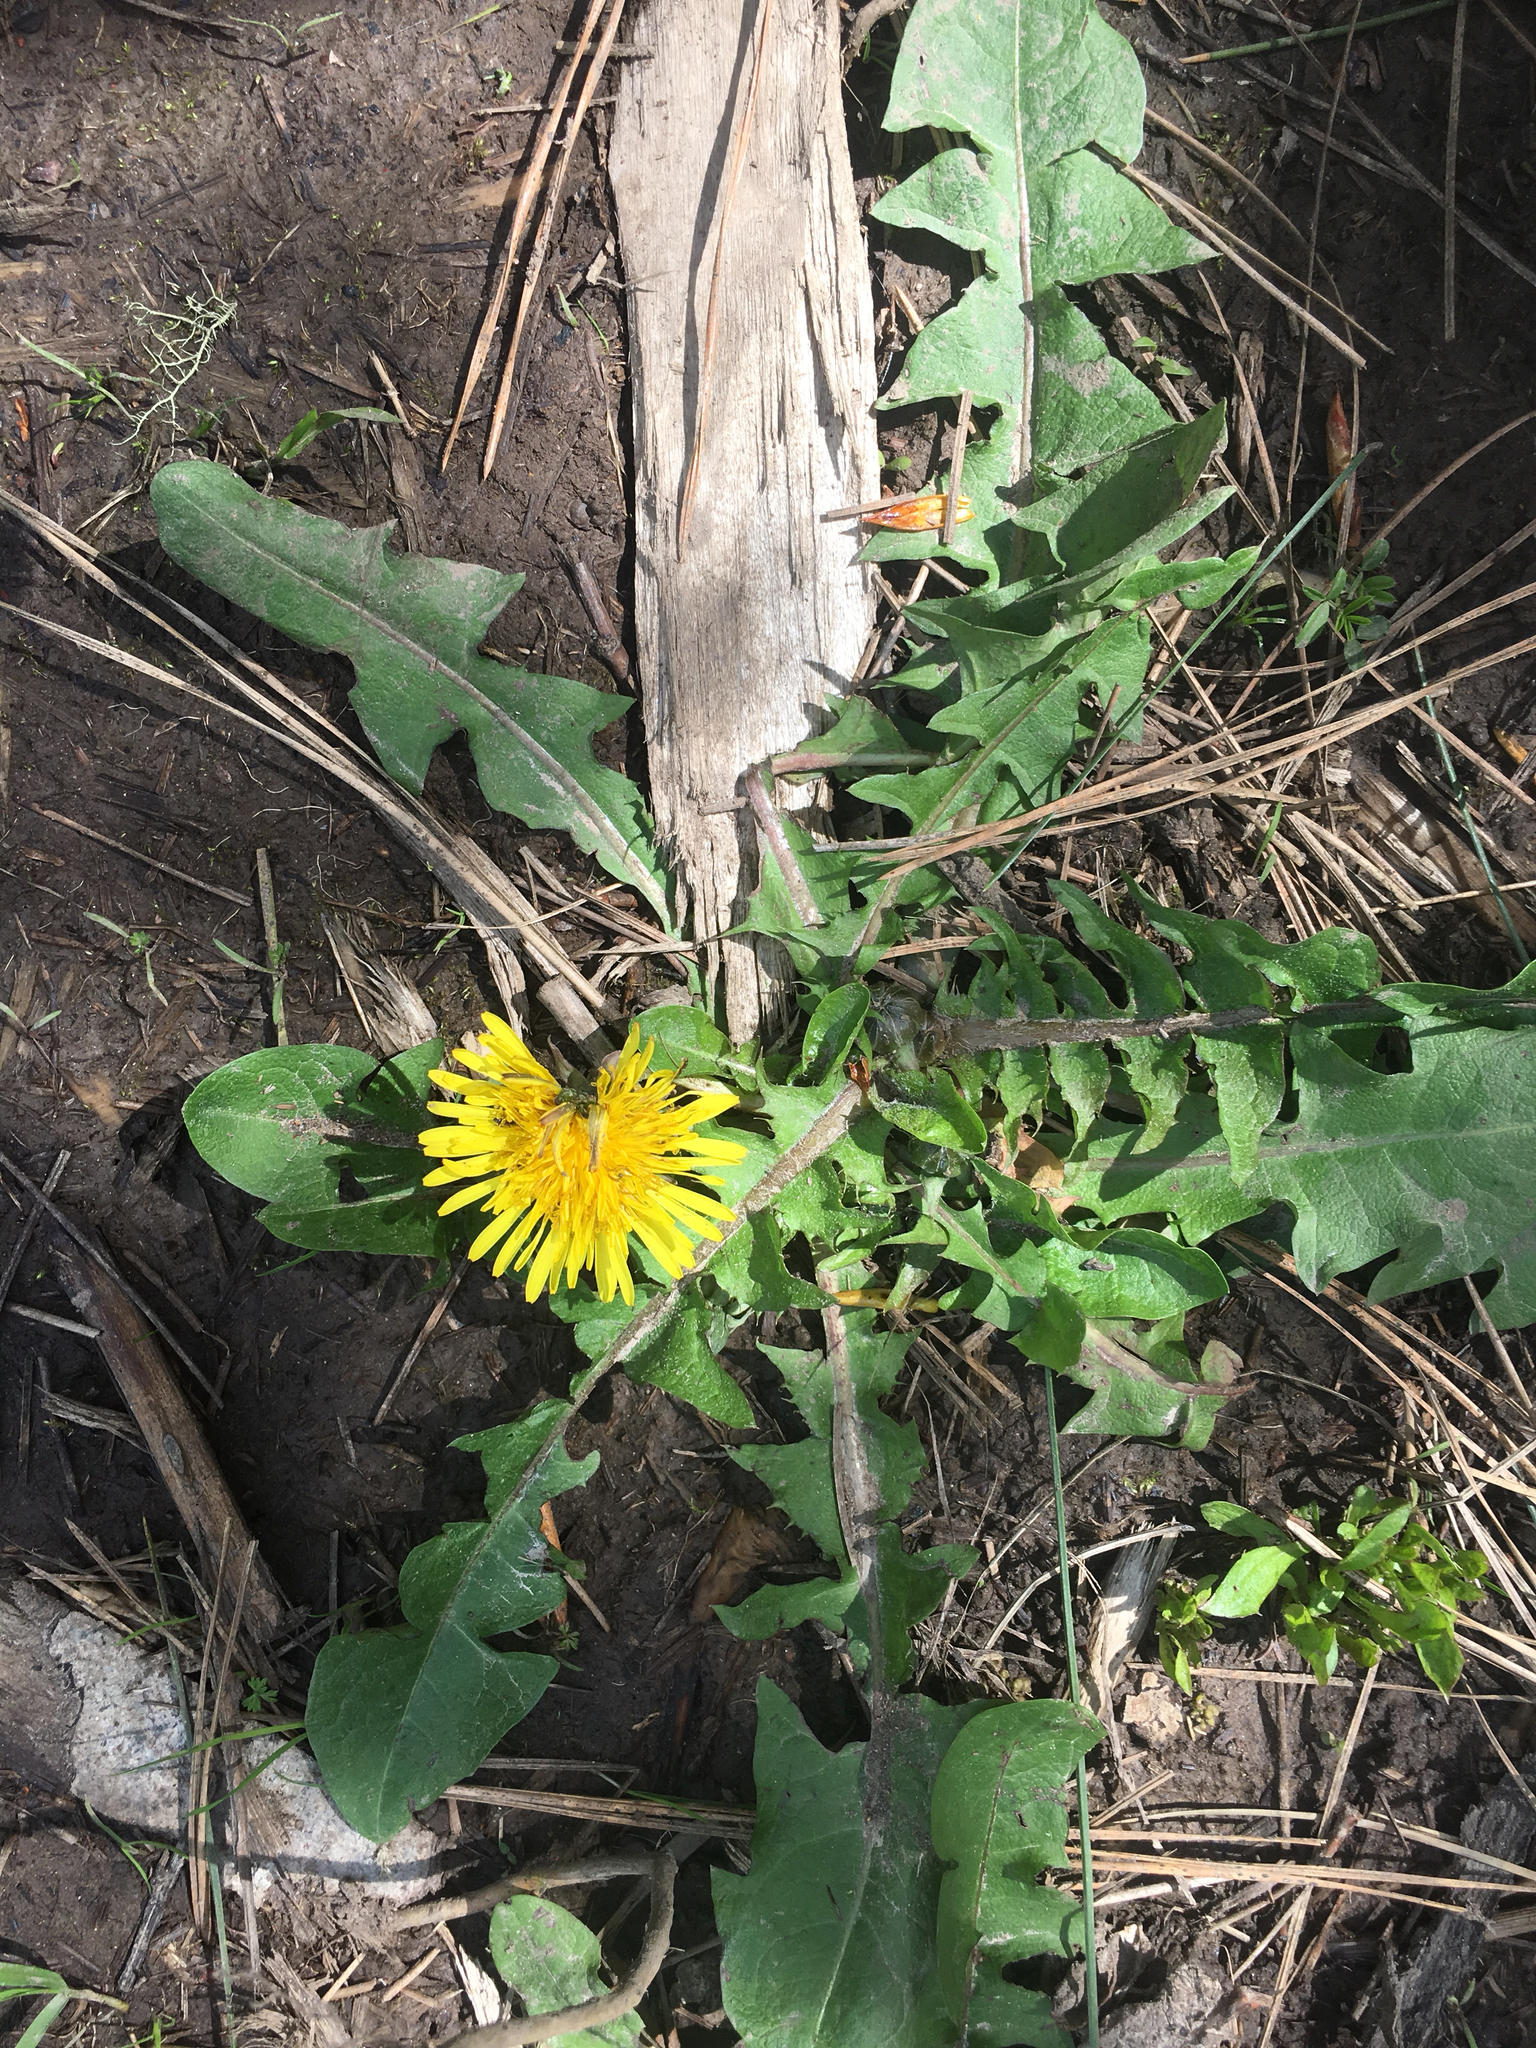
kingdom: Plantae
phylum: Tracheophyta
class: Magnoliopsida
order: Asterales
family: Asteraceae
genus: Taraxacum
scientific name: Taraxacum officinale
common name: Common dandelion
